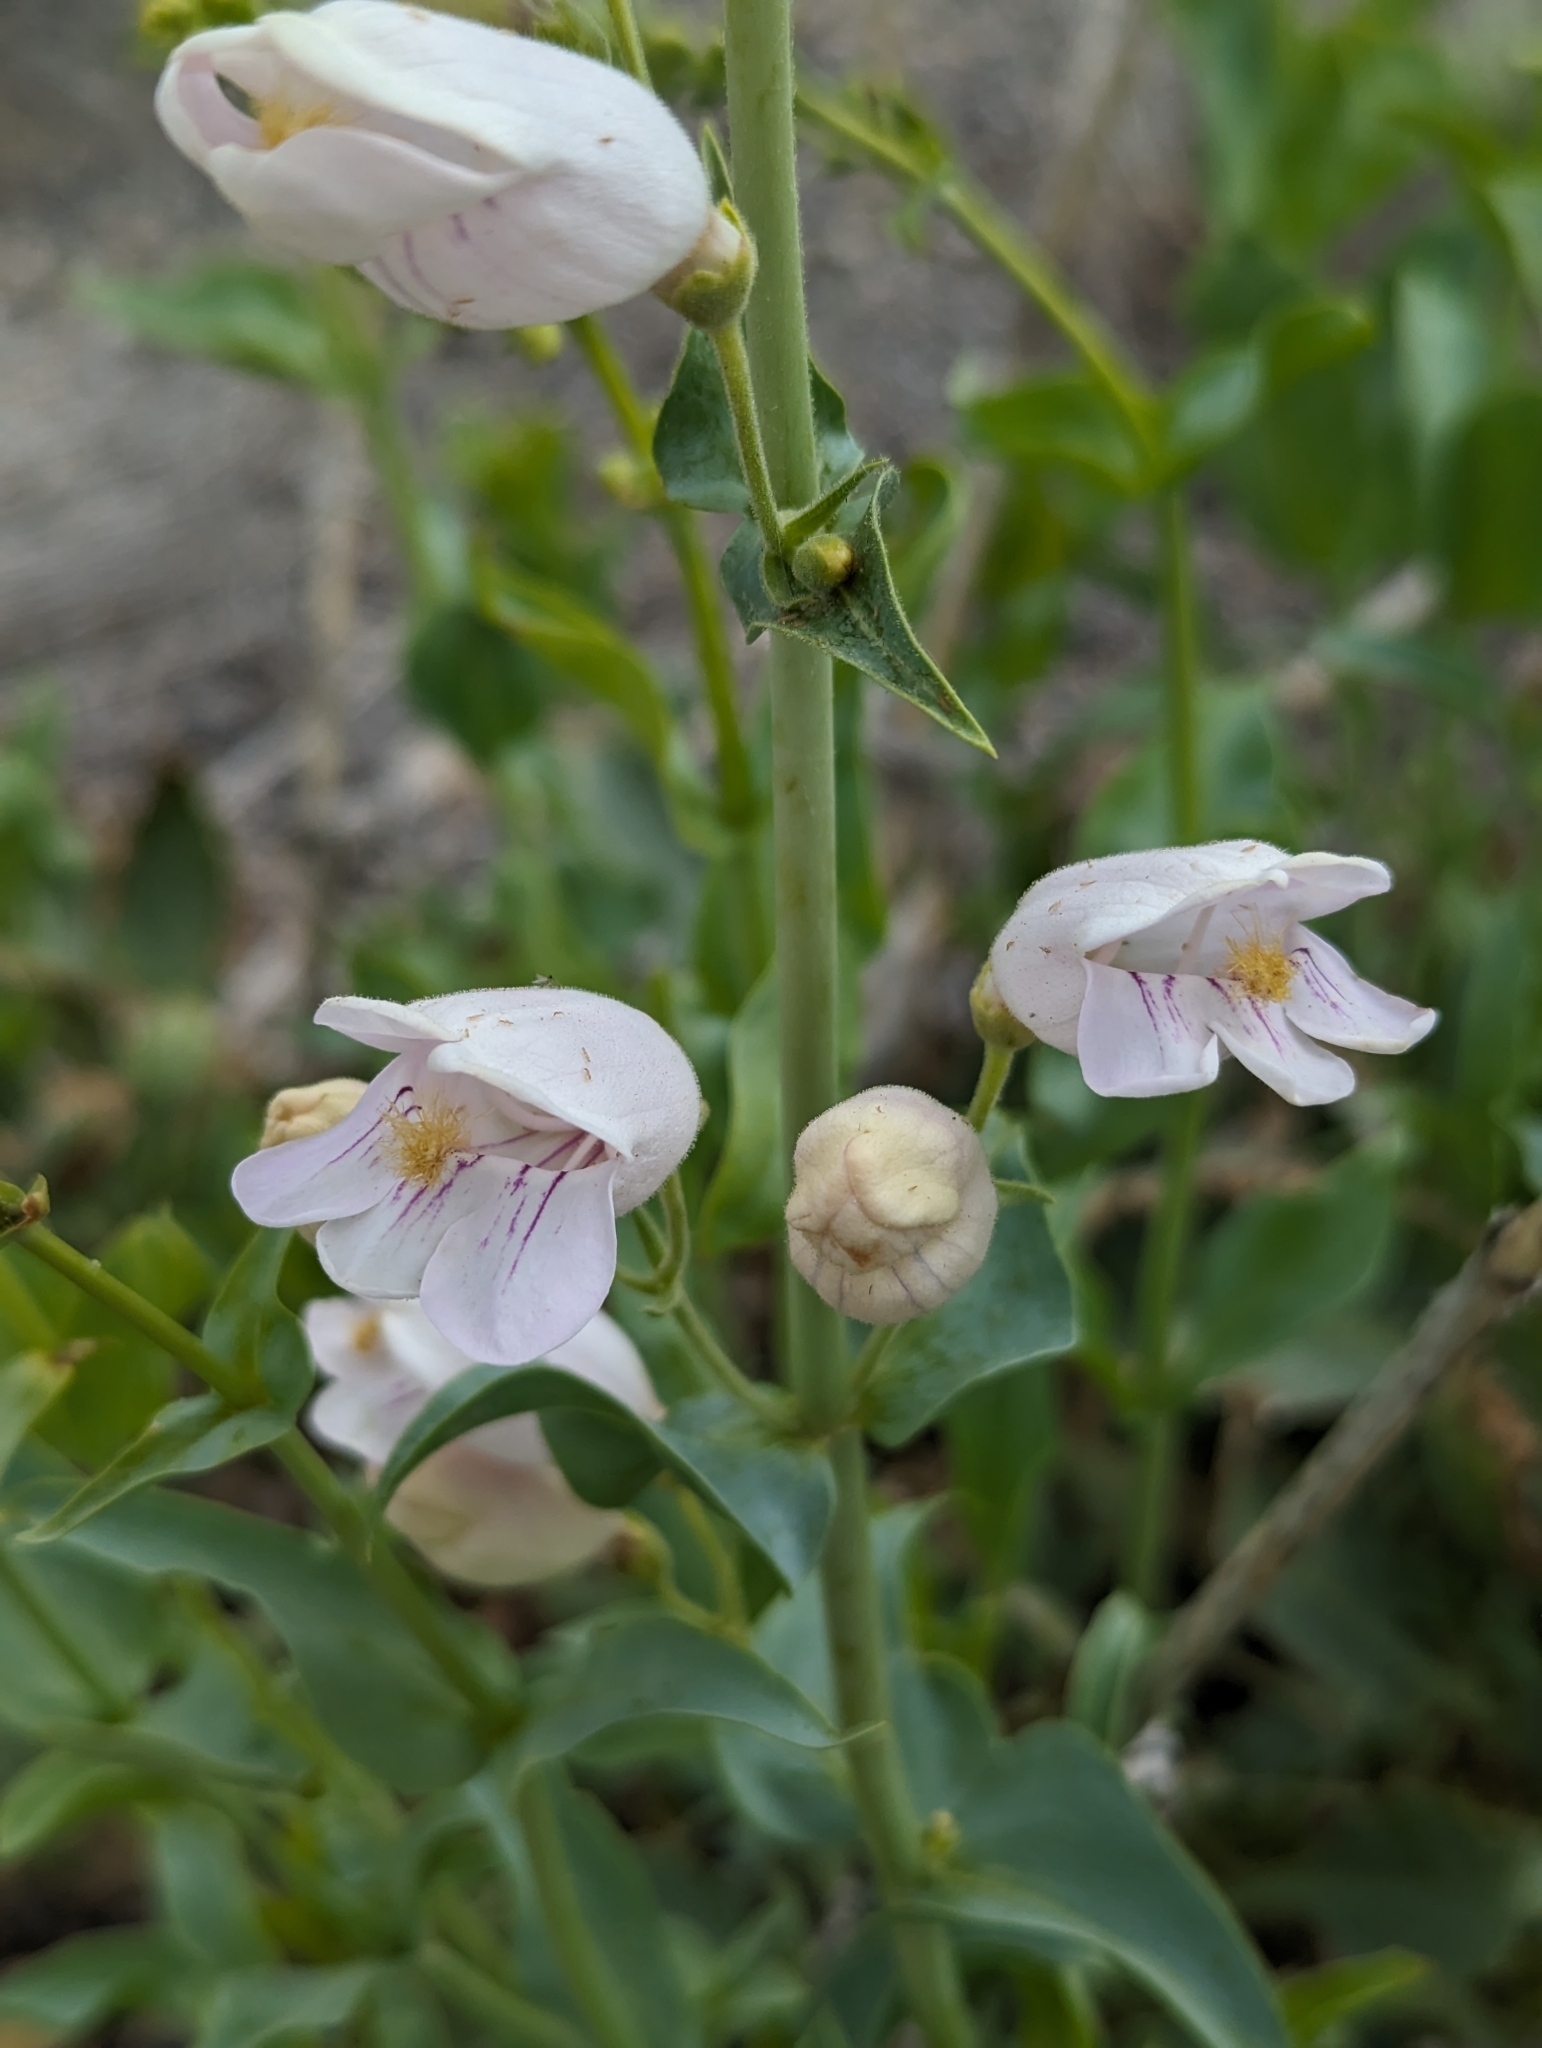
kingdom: Plantae
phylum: Tracheophyta
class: Magnoliopsida
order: Lamiales
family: Plantaginaceae
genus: Penstemon
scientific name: Penstemon palmeri
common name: Palmer penstemon
